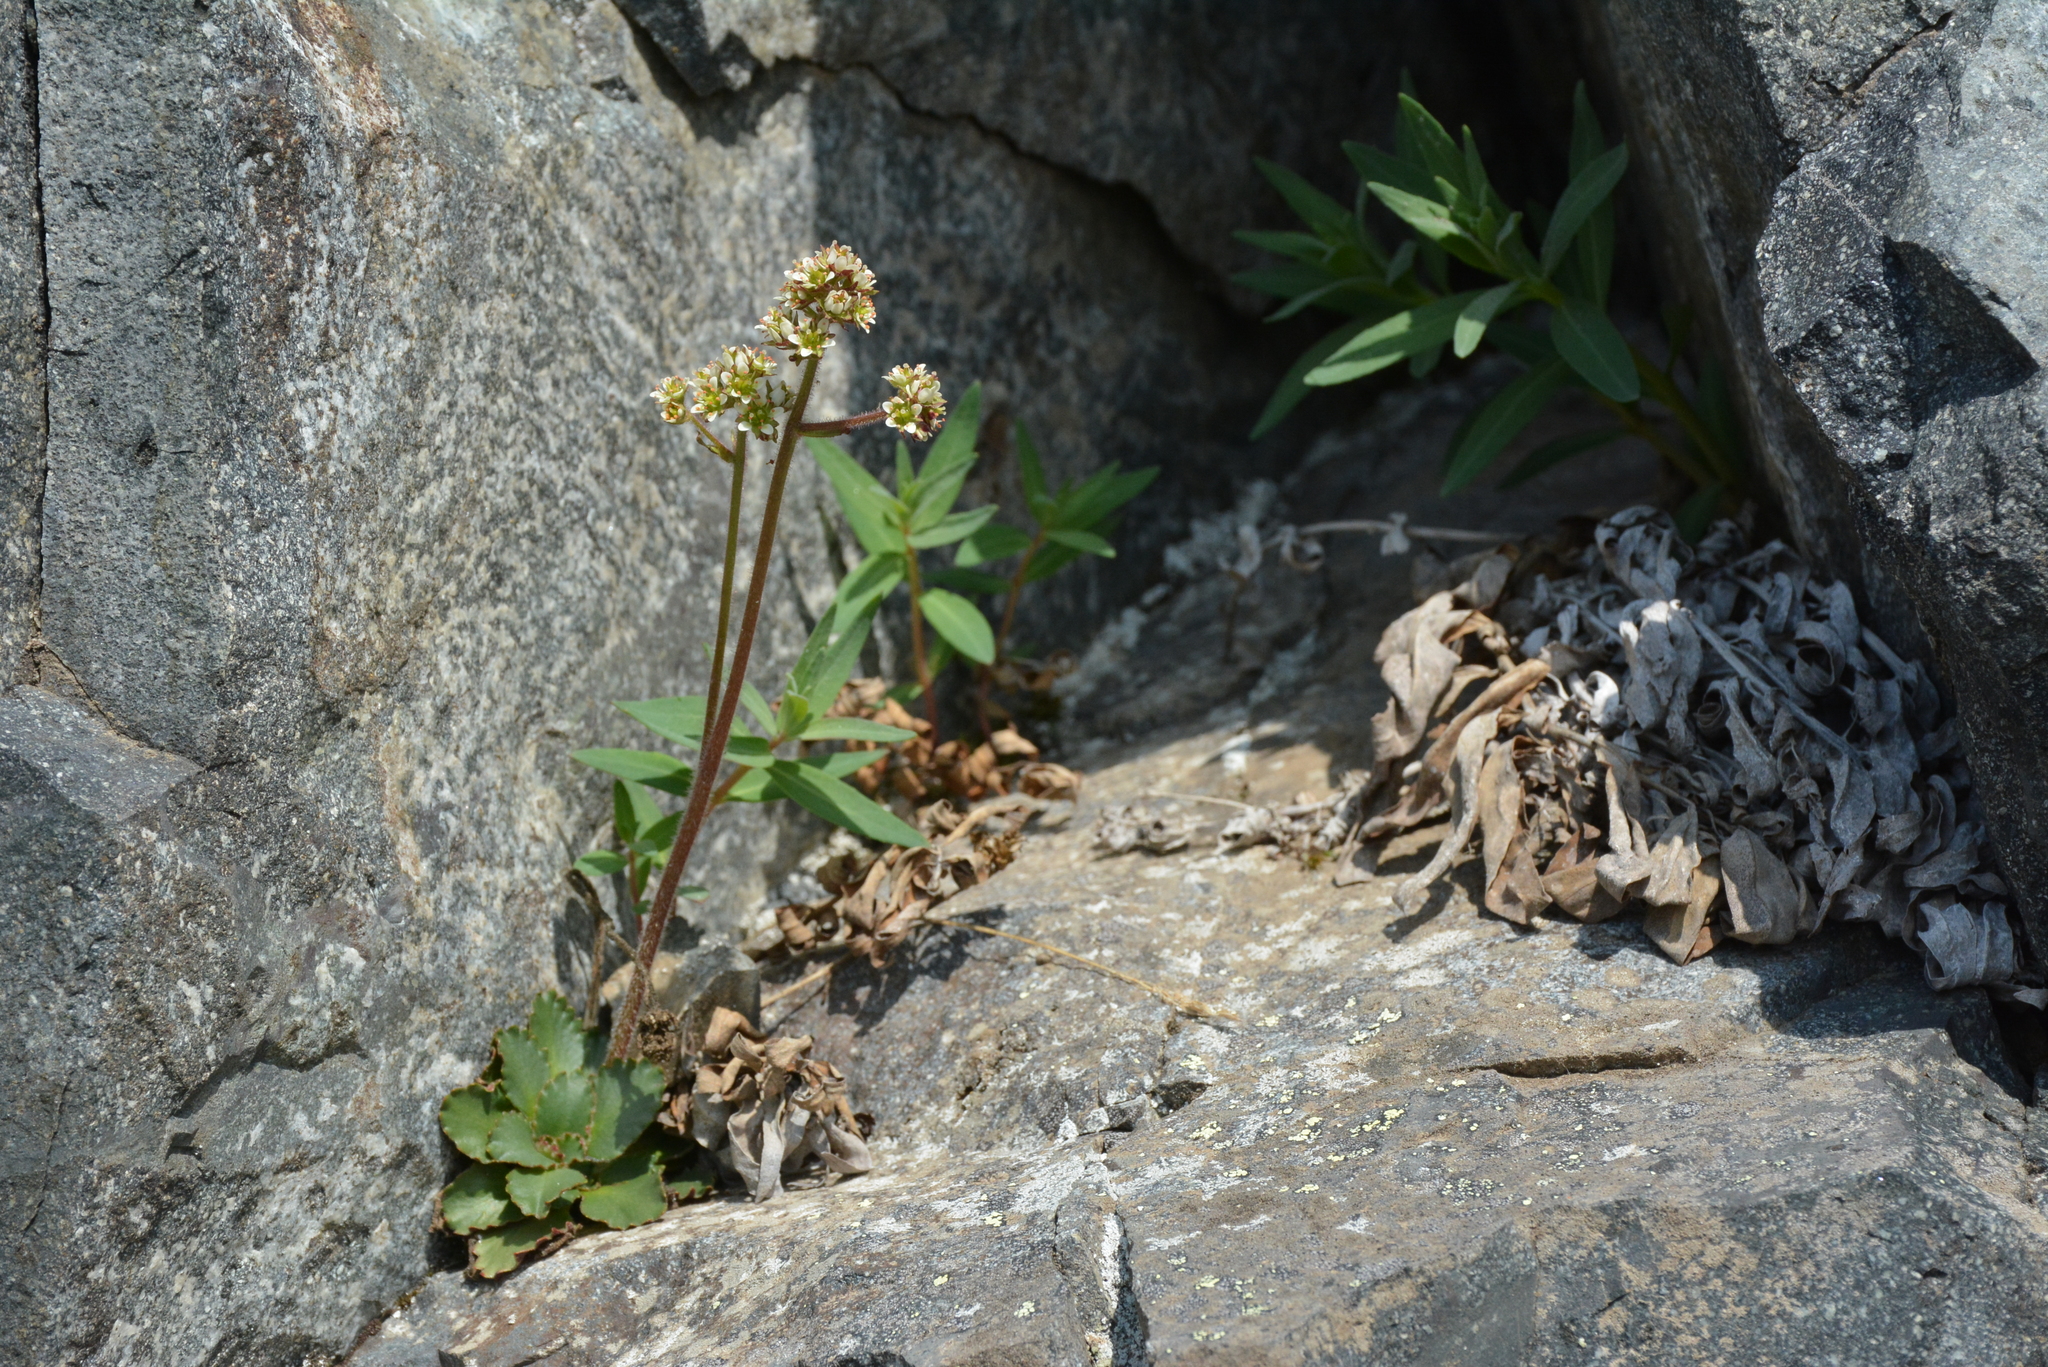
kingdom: Plantae
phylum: Tracheophyta
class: Magnoliopsida
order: Saxifragales
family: Saxifragaceae
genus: Micranthes
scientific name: Micranthes nivalis
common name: Alpine saxifrage
